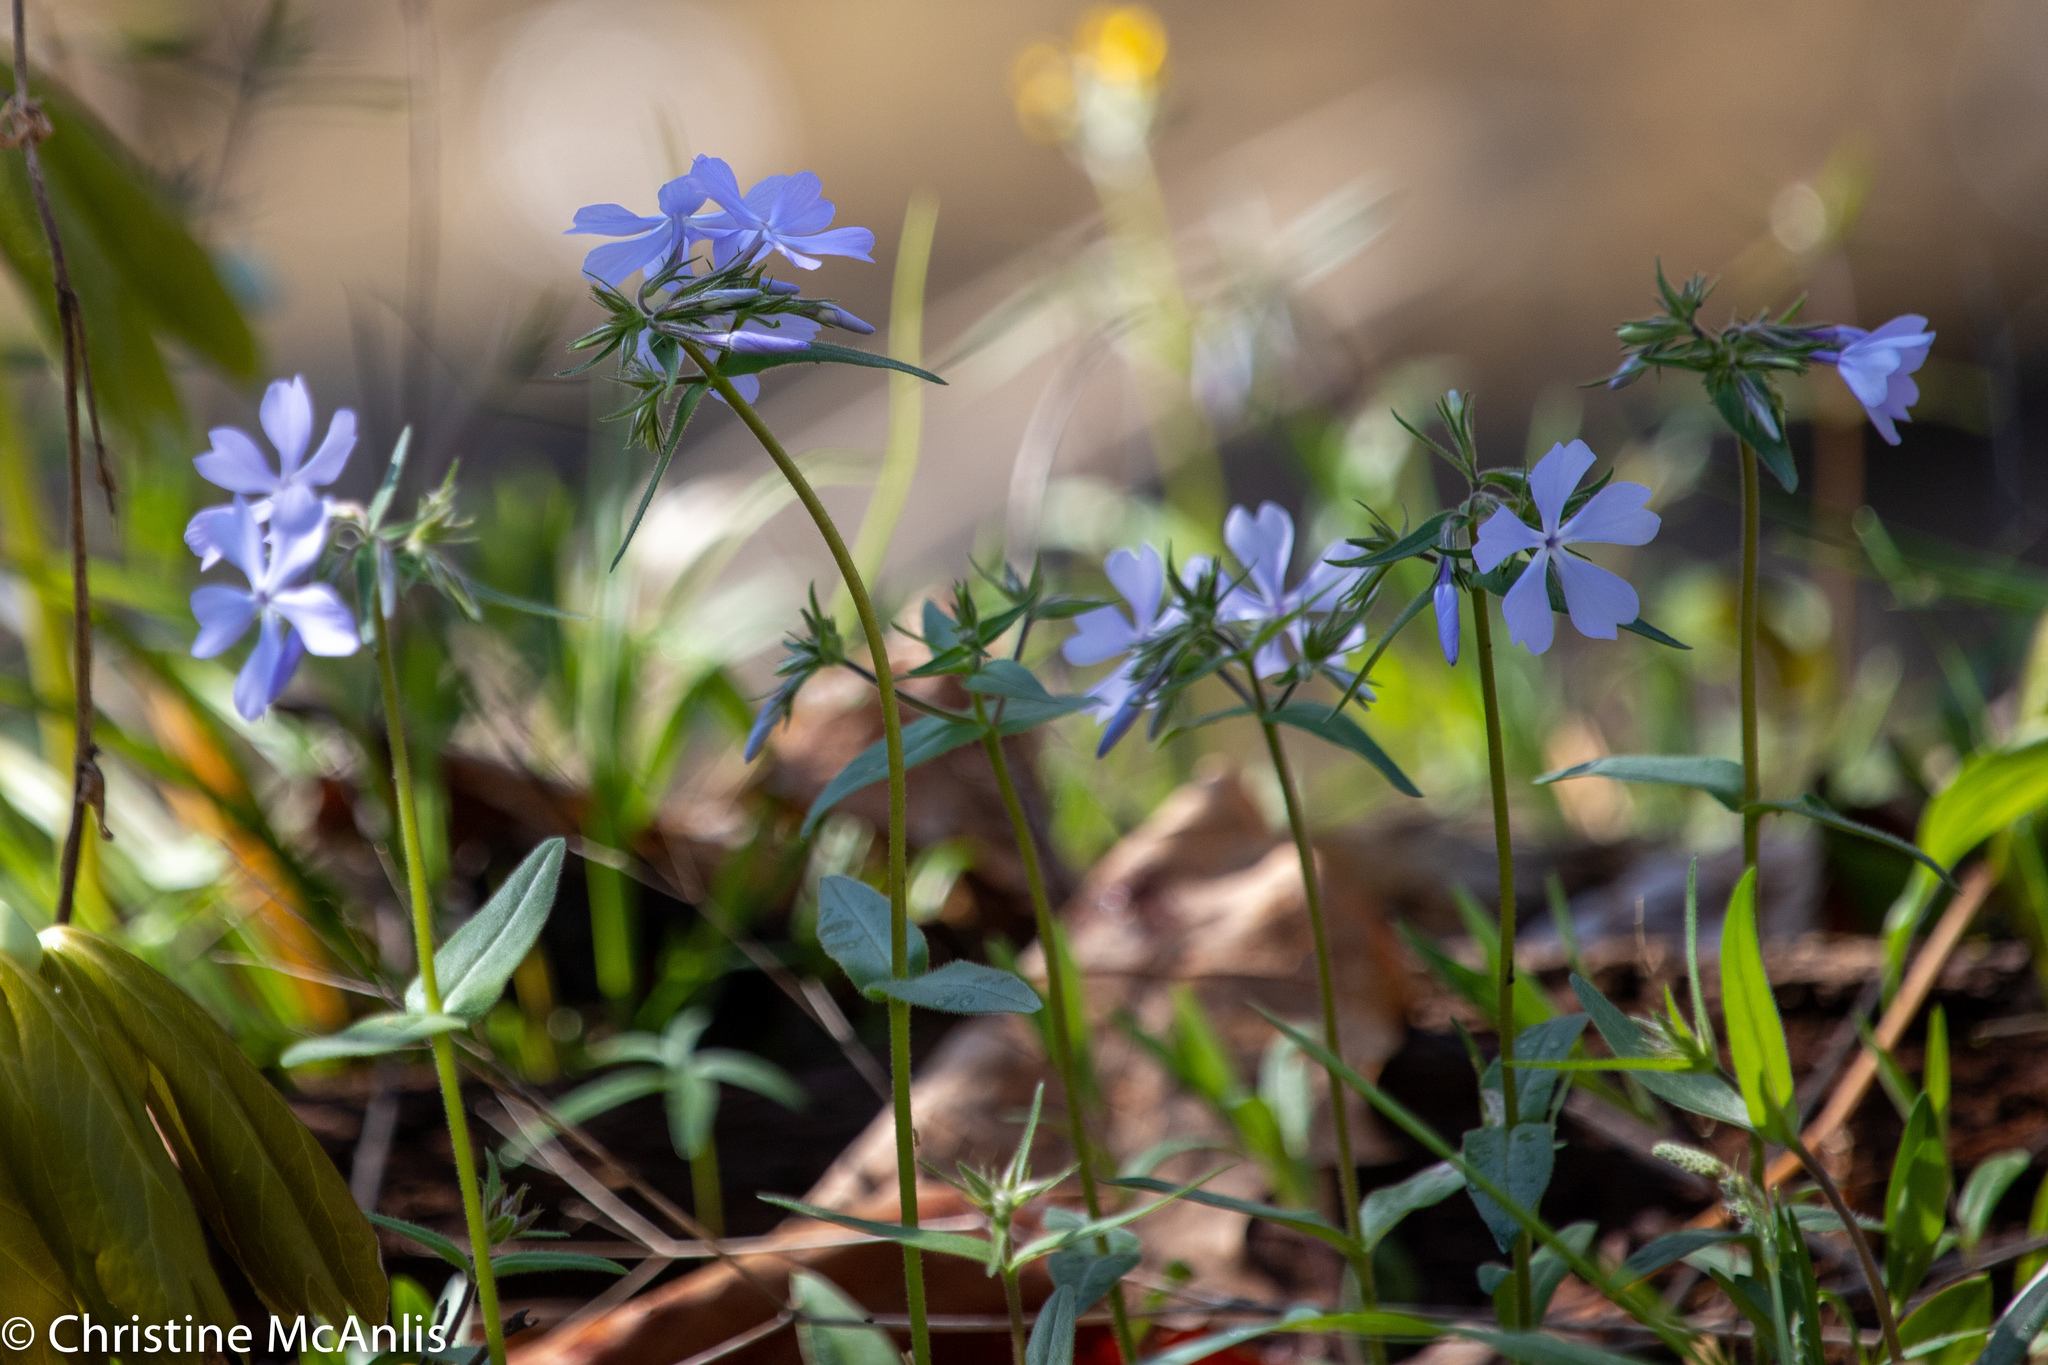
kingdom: Plantae
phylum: Tracheophyta
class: Magnoliopsida
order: Ericales
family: Polemoniaceae
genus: Phlox
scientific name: Phlox divaricata
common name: Blue phlox
